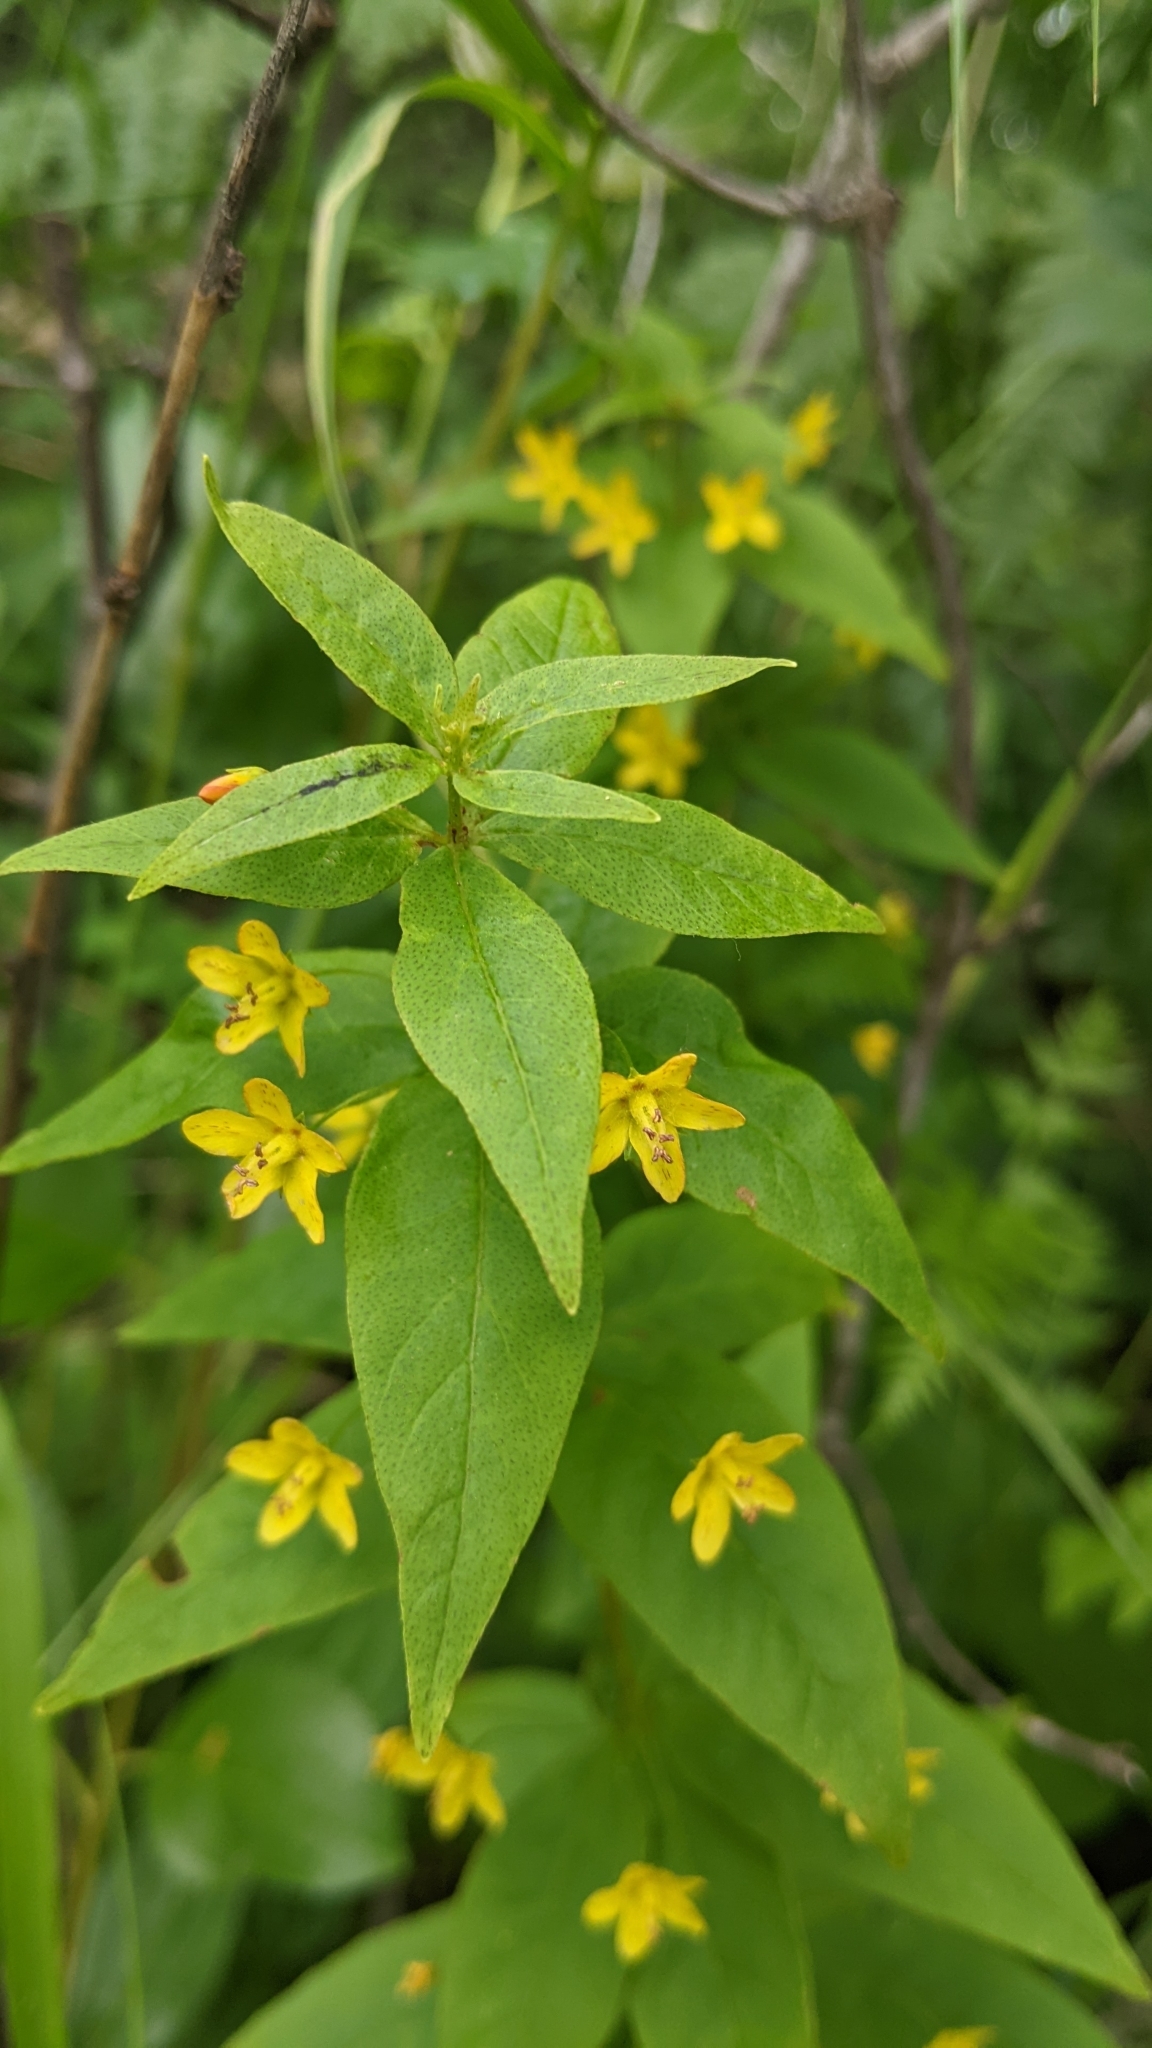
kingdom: Plantae
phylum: Tracheophyta
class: Magnoliopsida
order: Ericales
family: Primulaceae
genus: Lysimachia
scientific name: Lysimachia quadrifolia
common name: Whorled loosestrife
